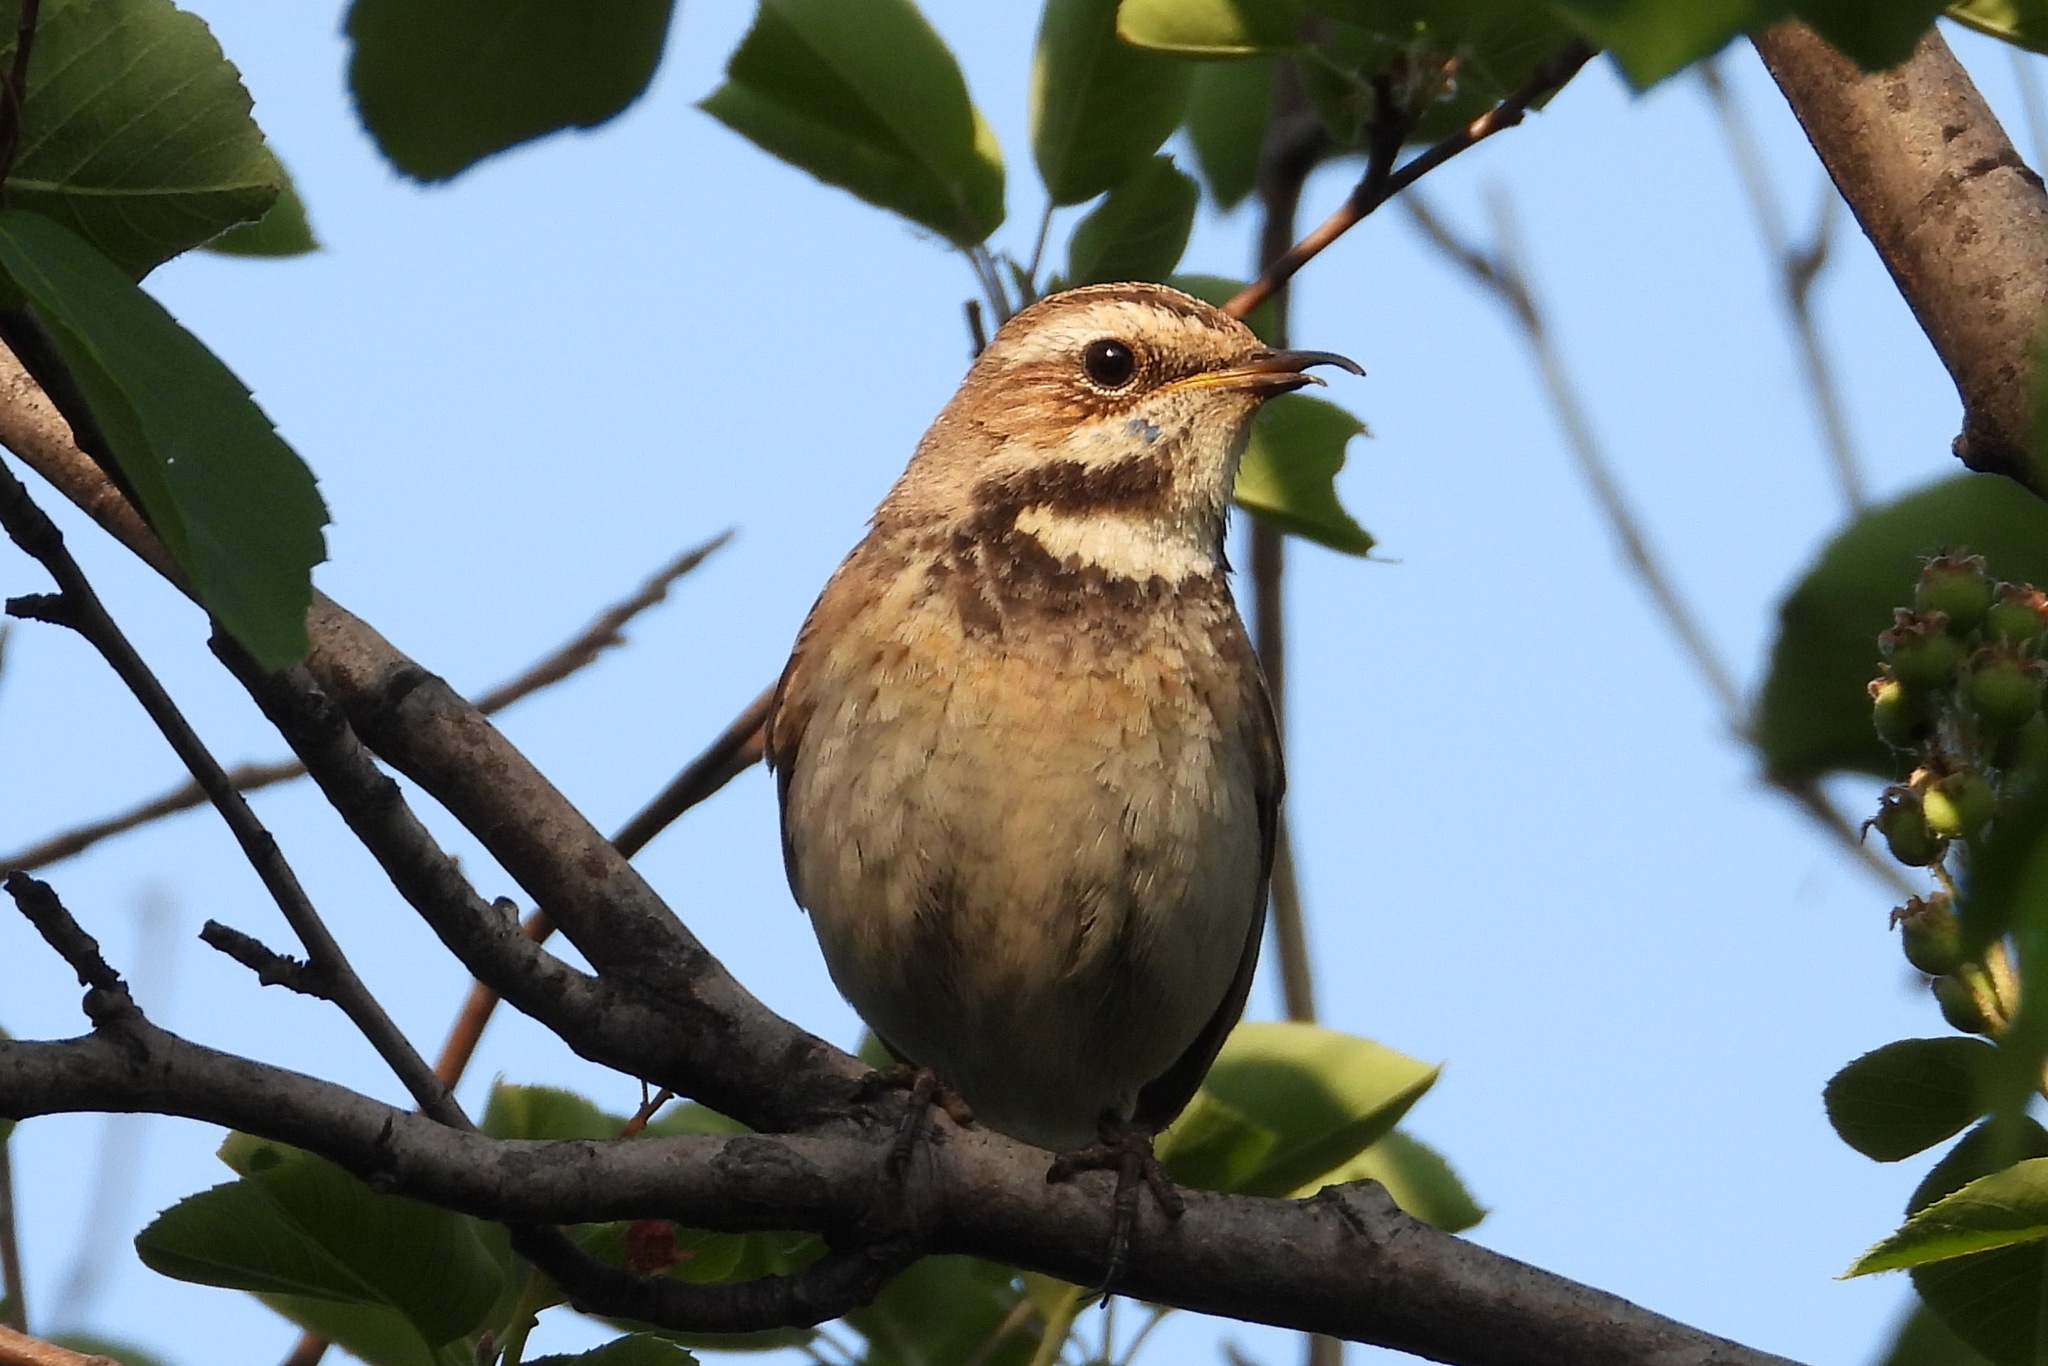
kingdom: Animalia
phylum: Chordata
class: Aves
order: Passeriformes
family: Muscicapidae
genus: Luscinia
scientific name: Luscinia svecica
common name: Bluethroat
